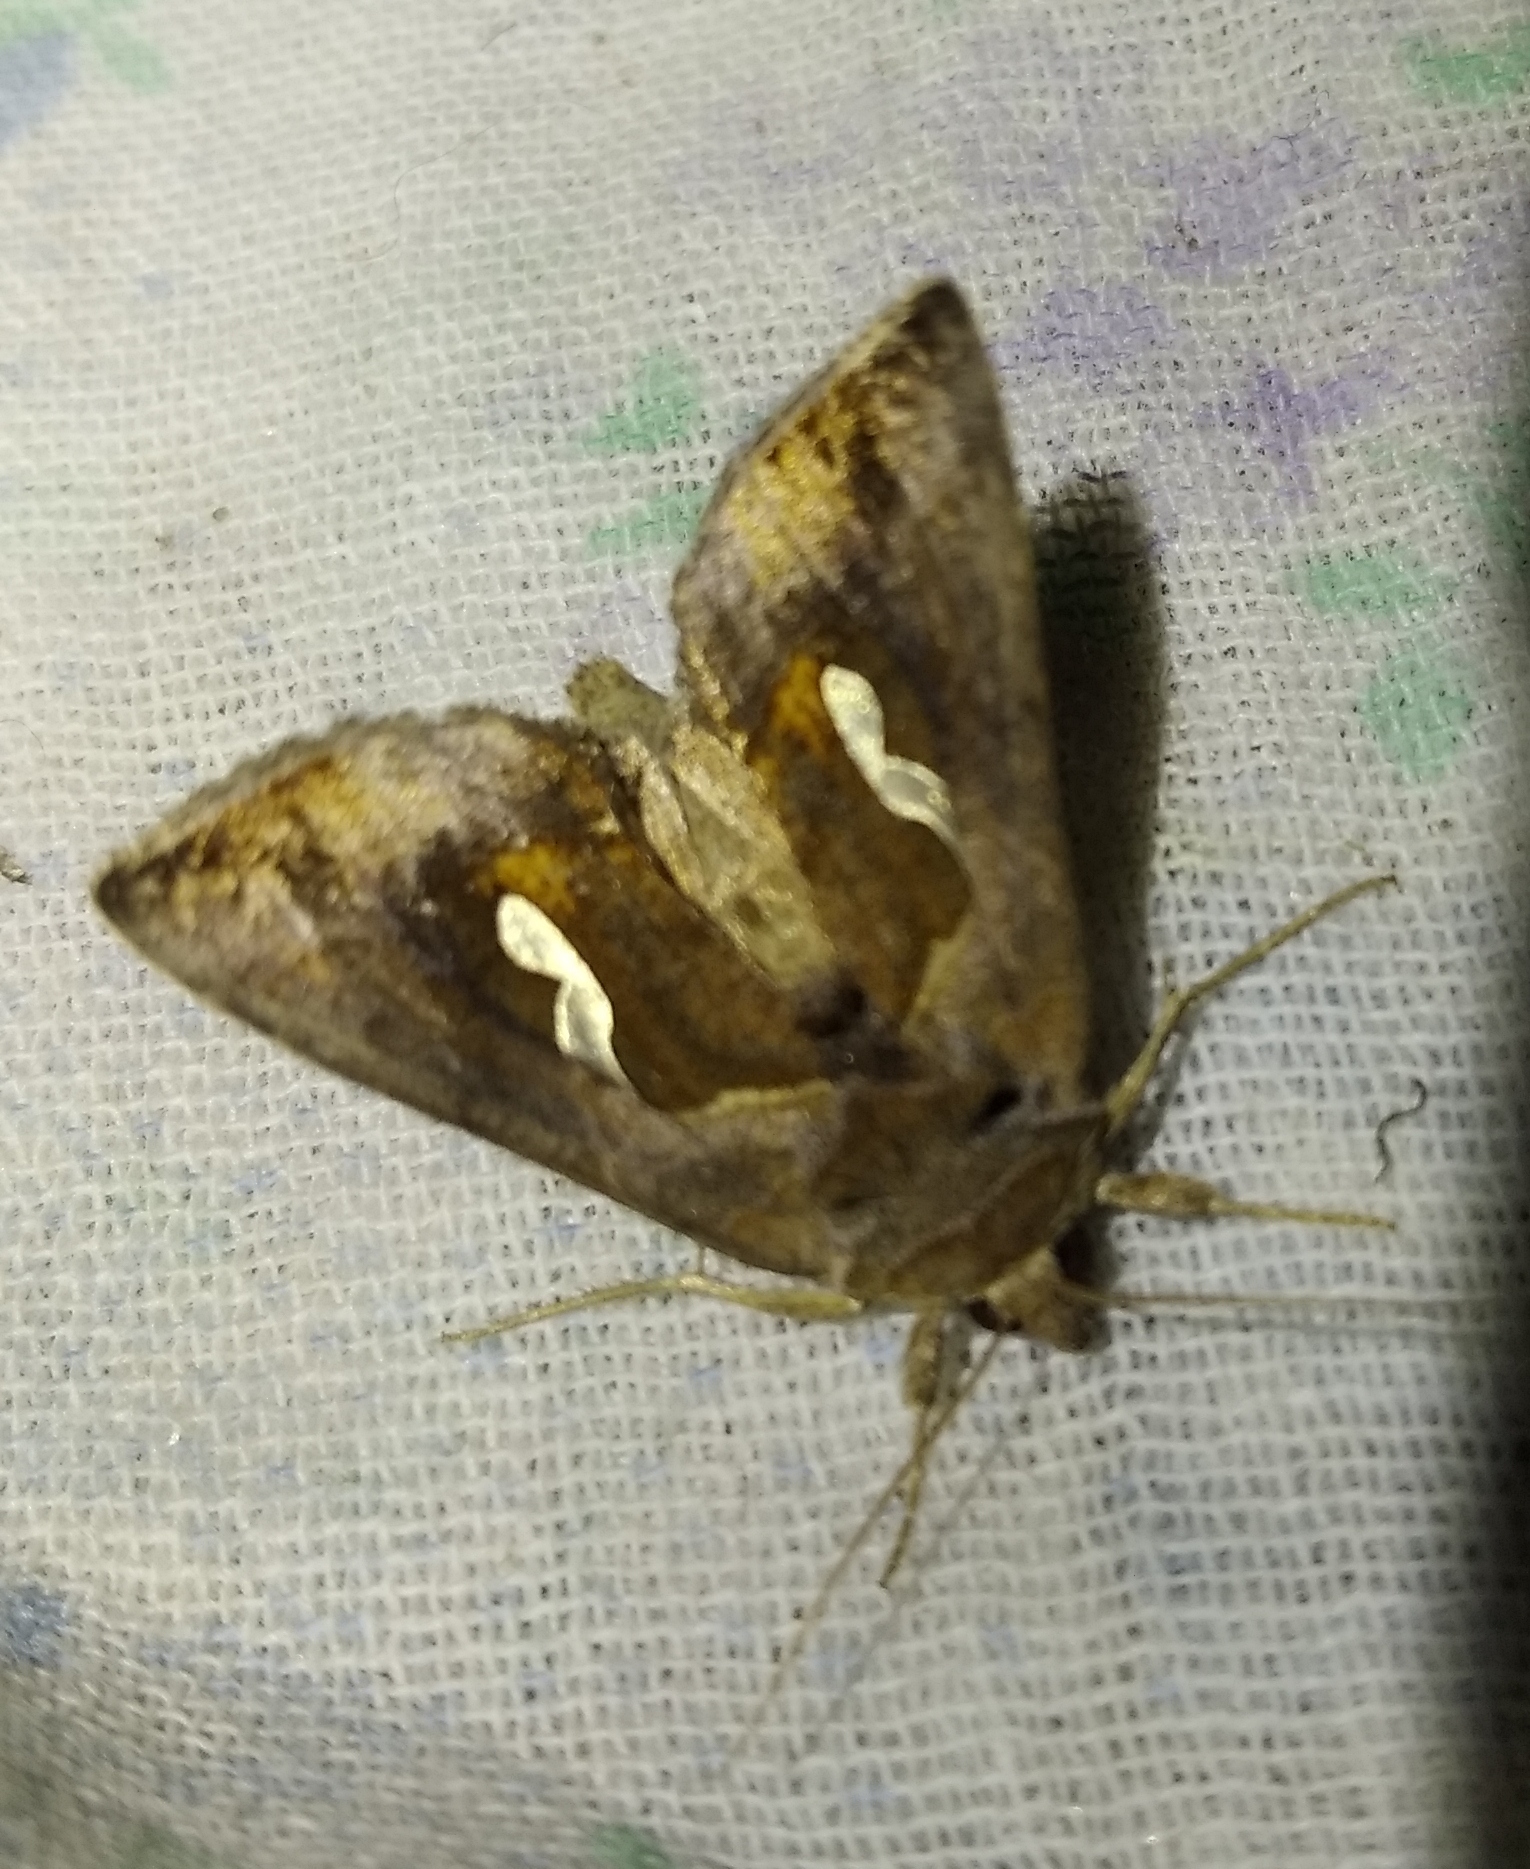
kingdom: Animalia
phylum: Arthropoda
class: Insecta
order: Lepidoptera
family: Noctuidae
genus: Macdunnoughia
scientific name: Macdunnoughia confusa
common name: Dewick's plusia
